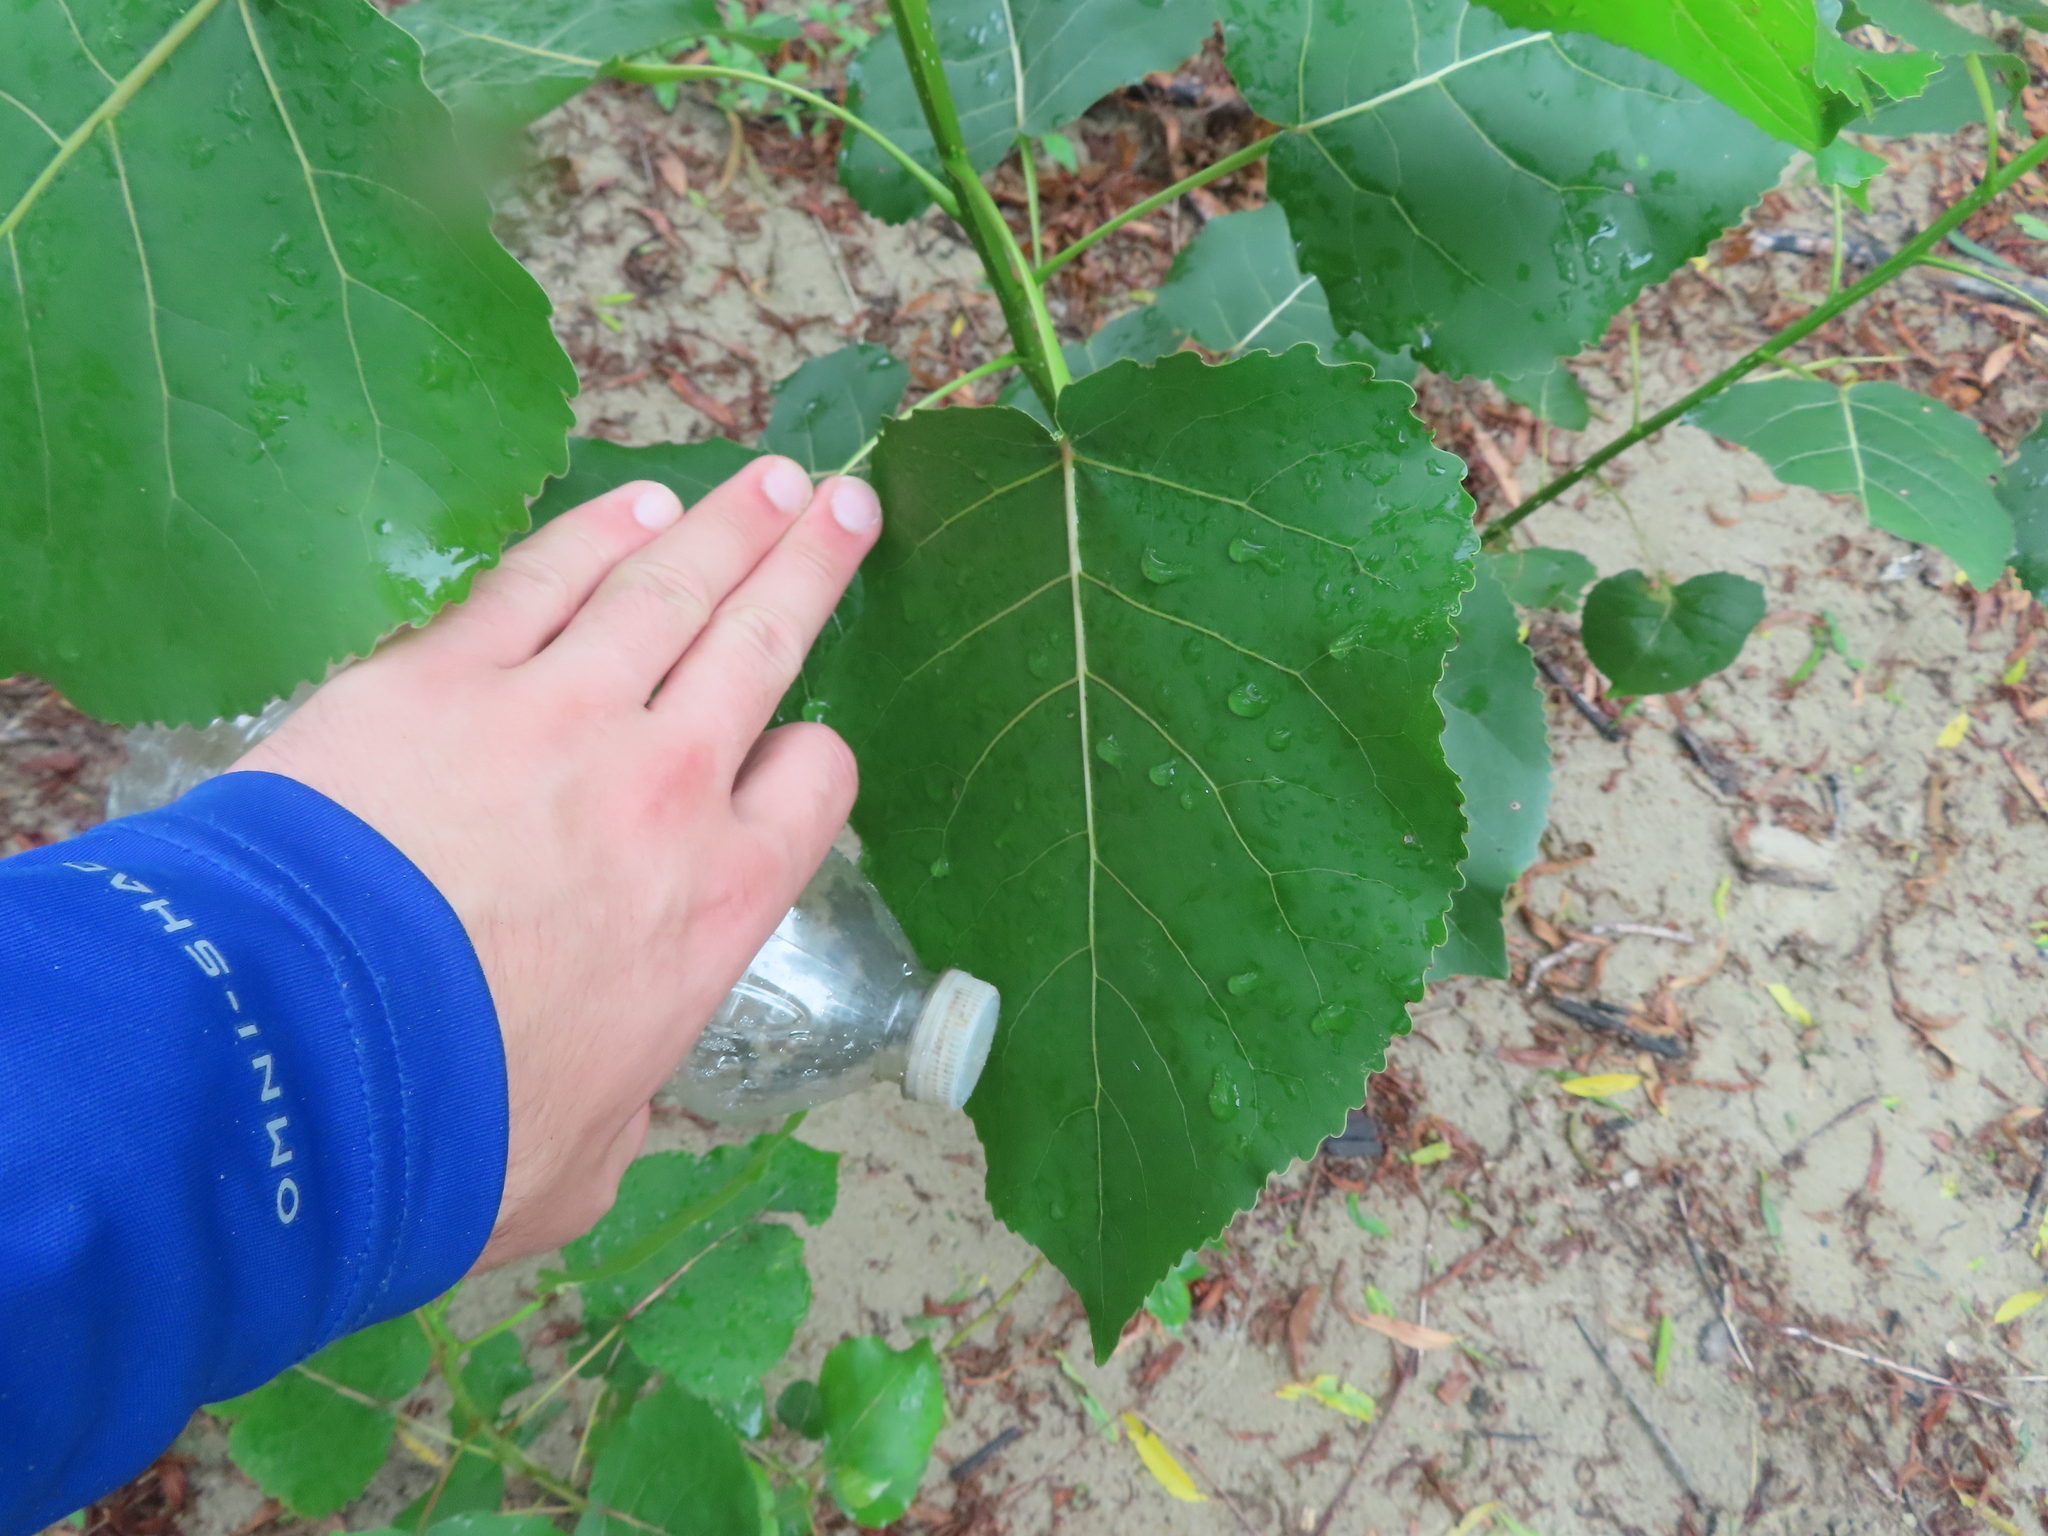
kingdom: Plantae
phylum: Tracheophyta
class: Magnoliopsida
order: Malpighiales
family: Salicaceae
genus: Populus
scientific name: Populus deltoides
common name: Eastern cottonwood
